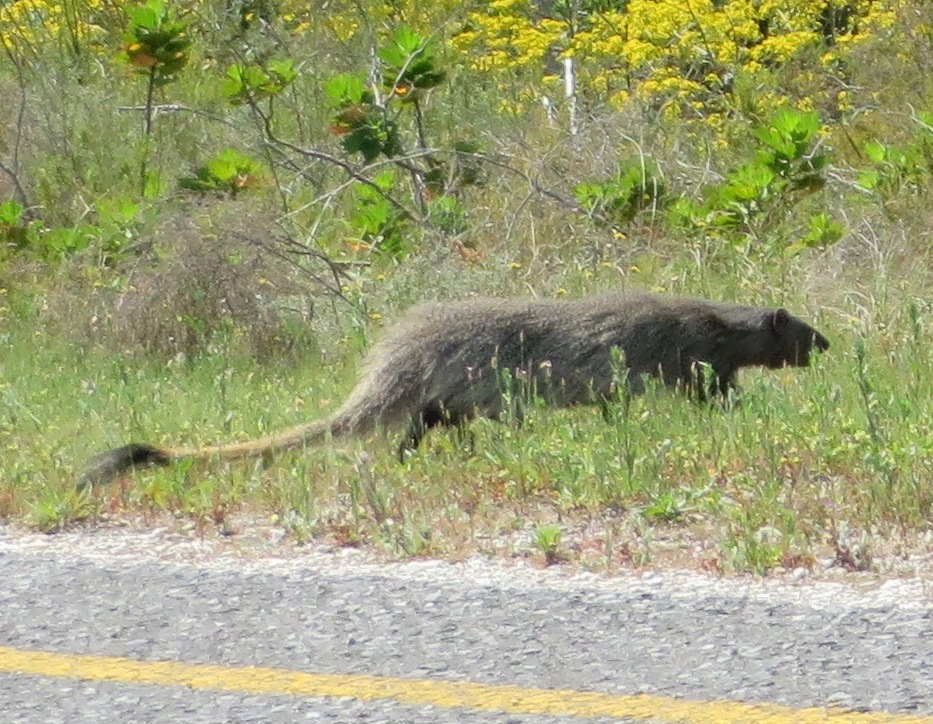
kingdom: Animalia
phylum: Chordata
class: Mammalia
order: Carnivora
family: Herpestidae
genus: Herpestes
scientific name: Herpestes ichneumon
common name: Egyptian mongoose
